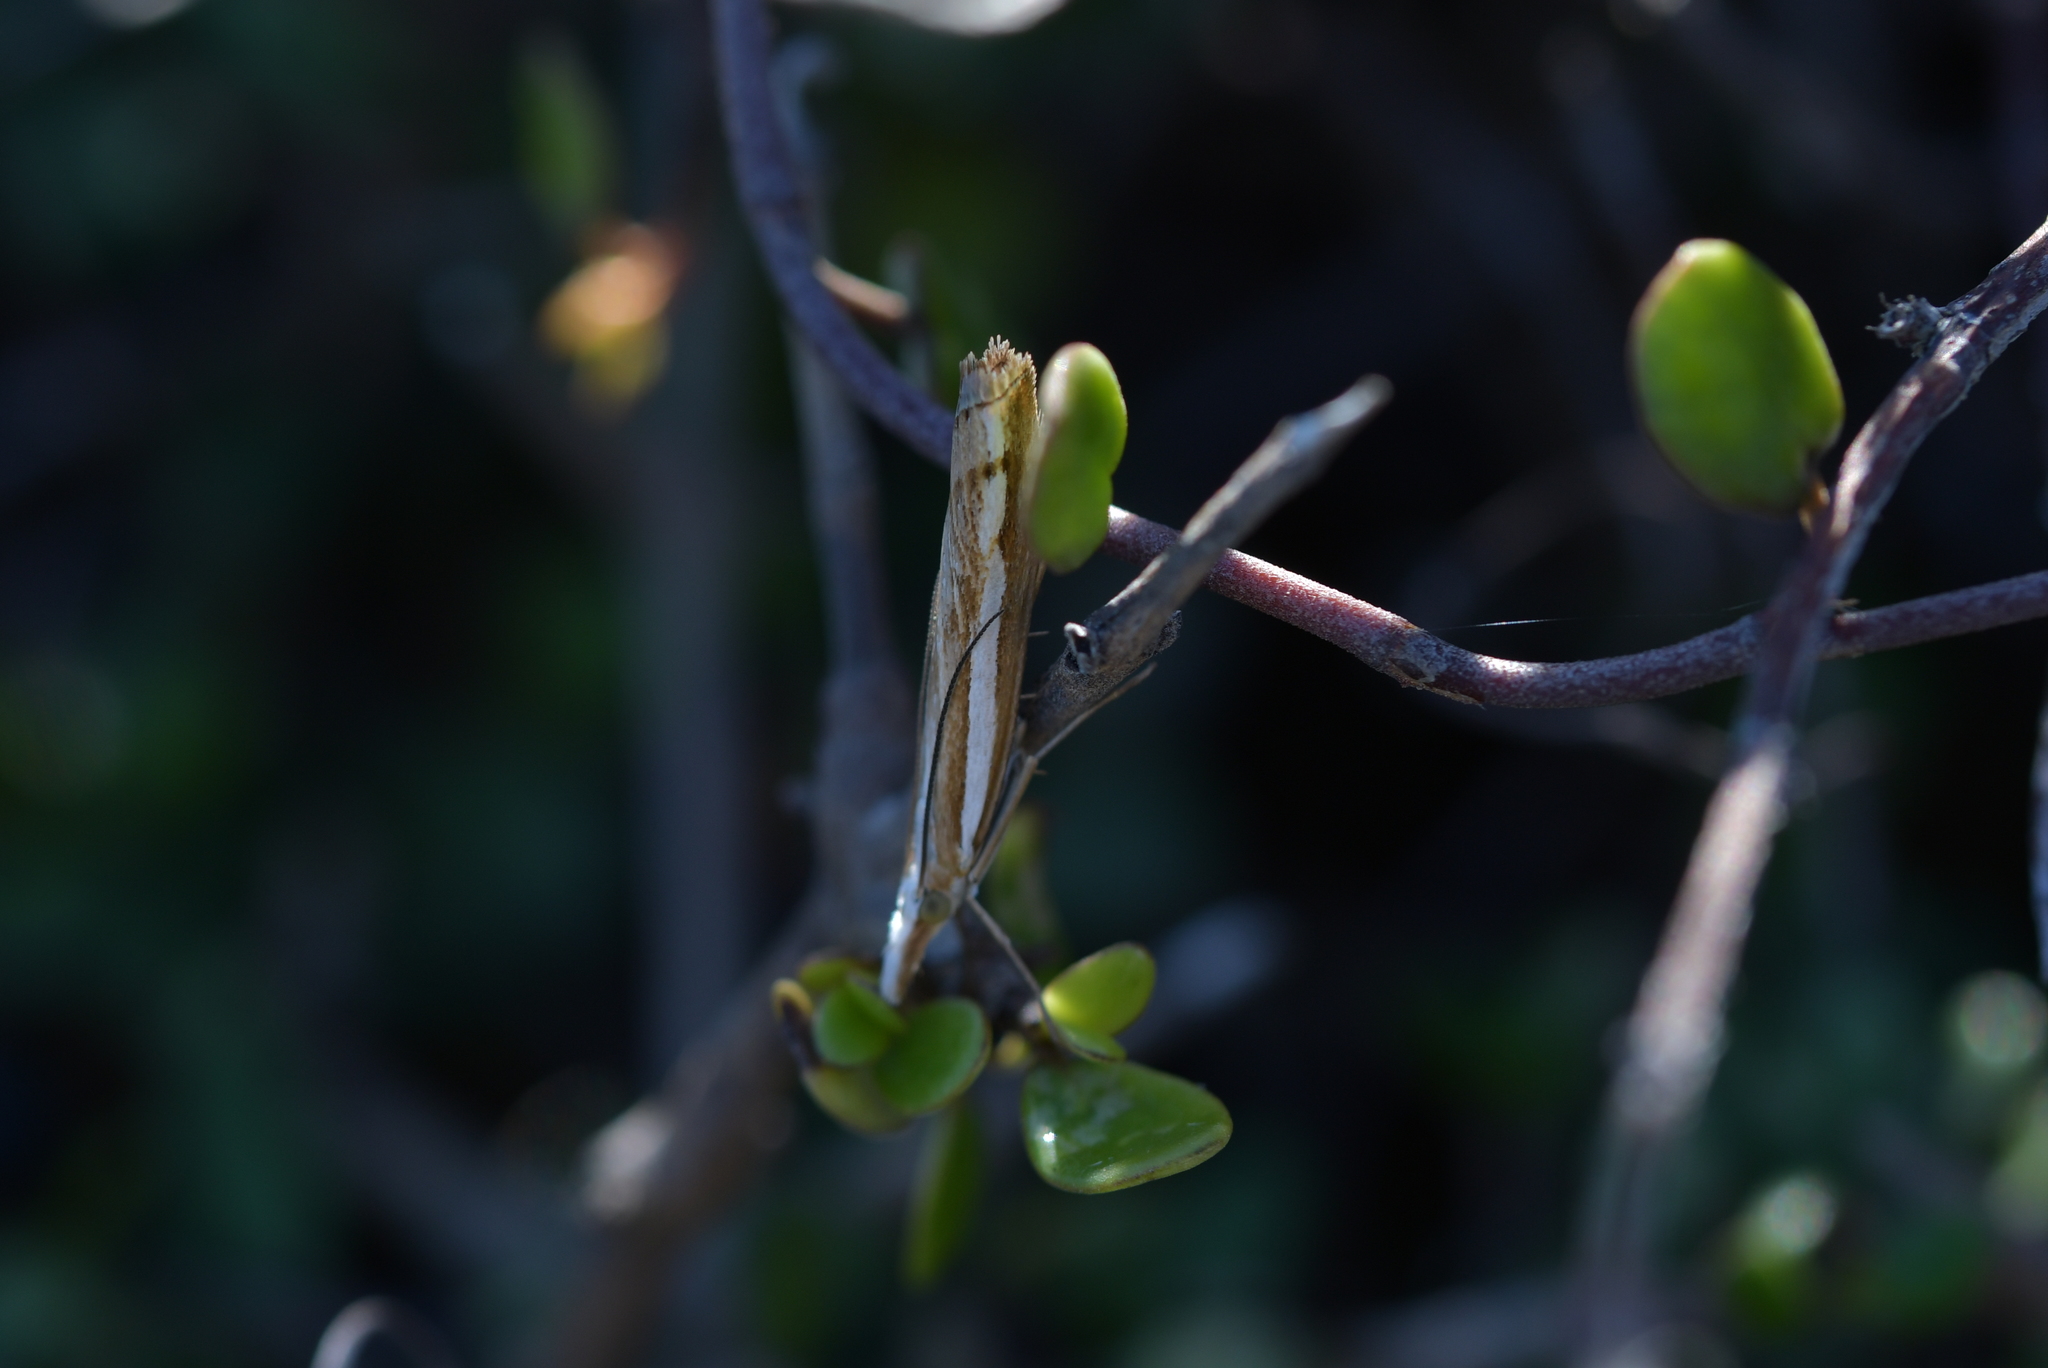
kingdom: Animalia
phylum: Arthropoda
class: Insecta
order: Lepidoptera
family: Crambidae
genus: Orocrambus
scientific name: Orocrambus vittellus
